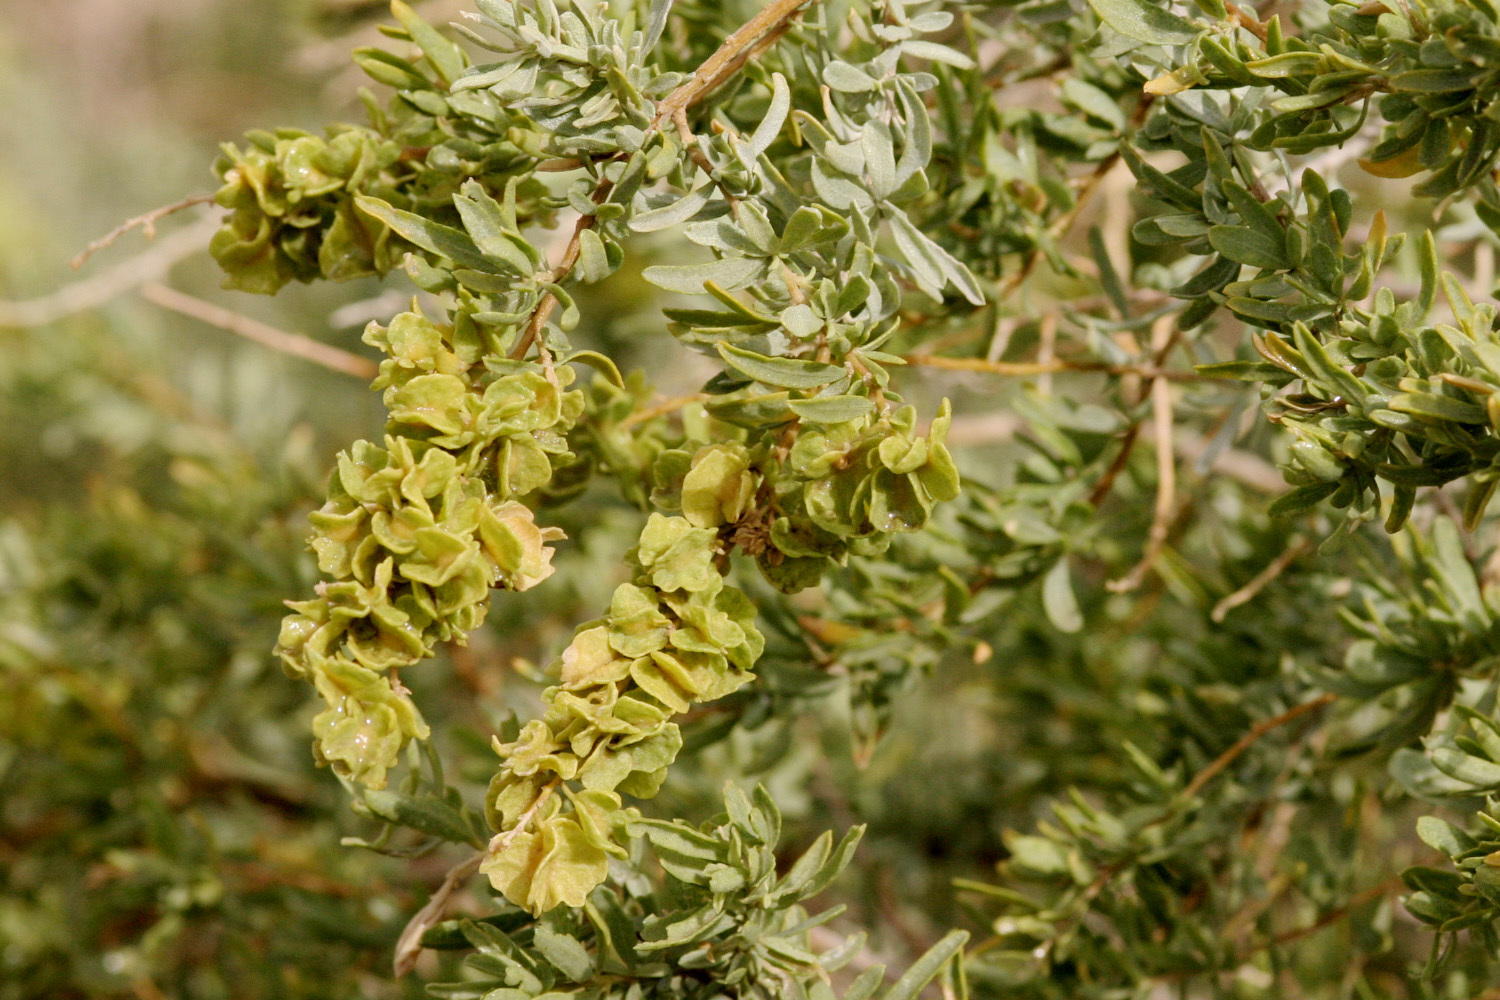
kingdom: Plantae
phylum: Tracheophyta
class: Magnoliopsida
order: Caryophyllales
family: Amaranthaceae
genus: Atriplex
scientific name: Atriplex canescens
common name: Four-wing saltbush
